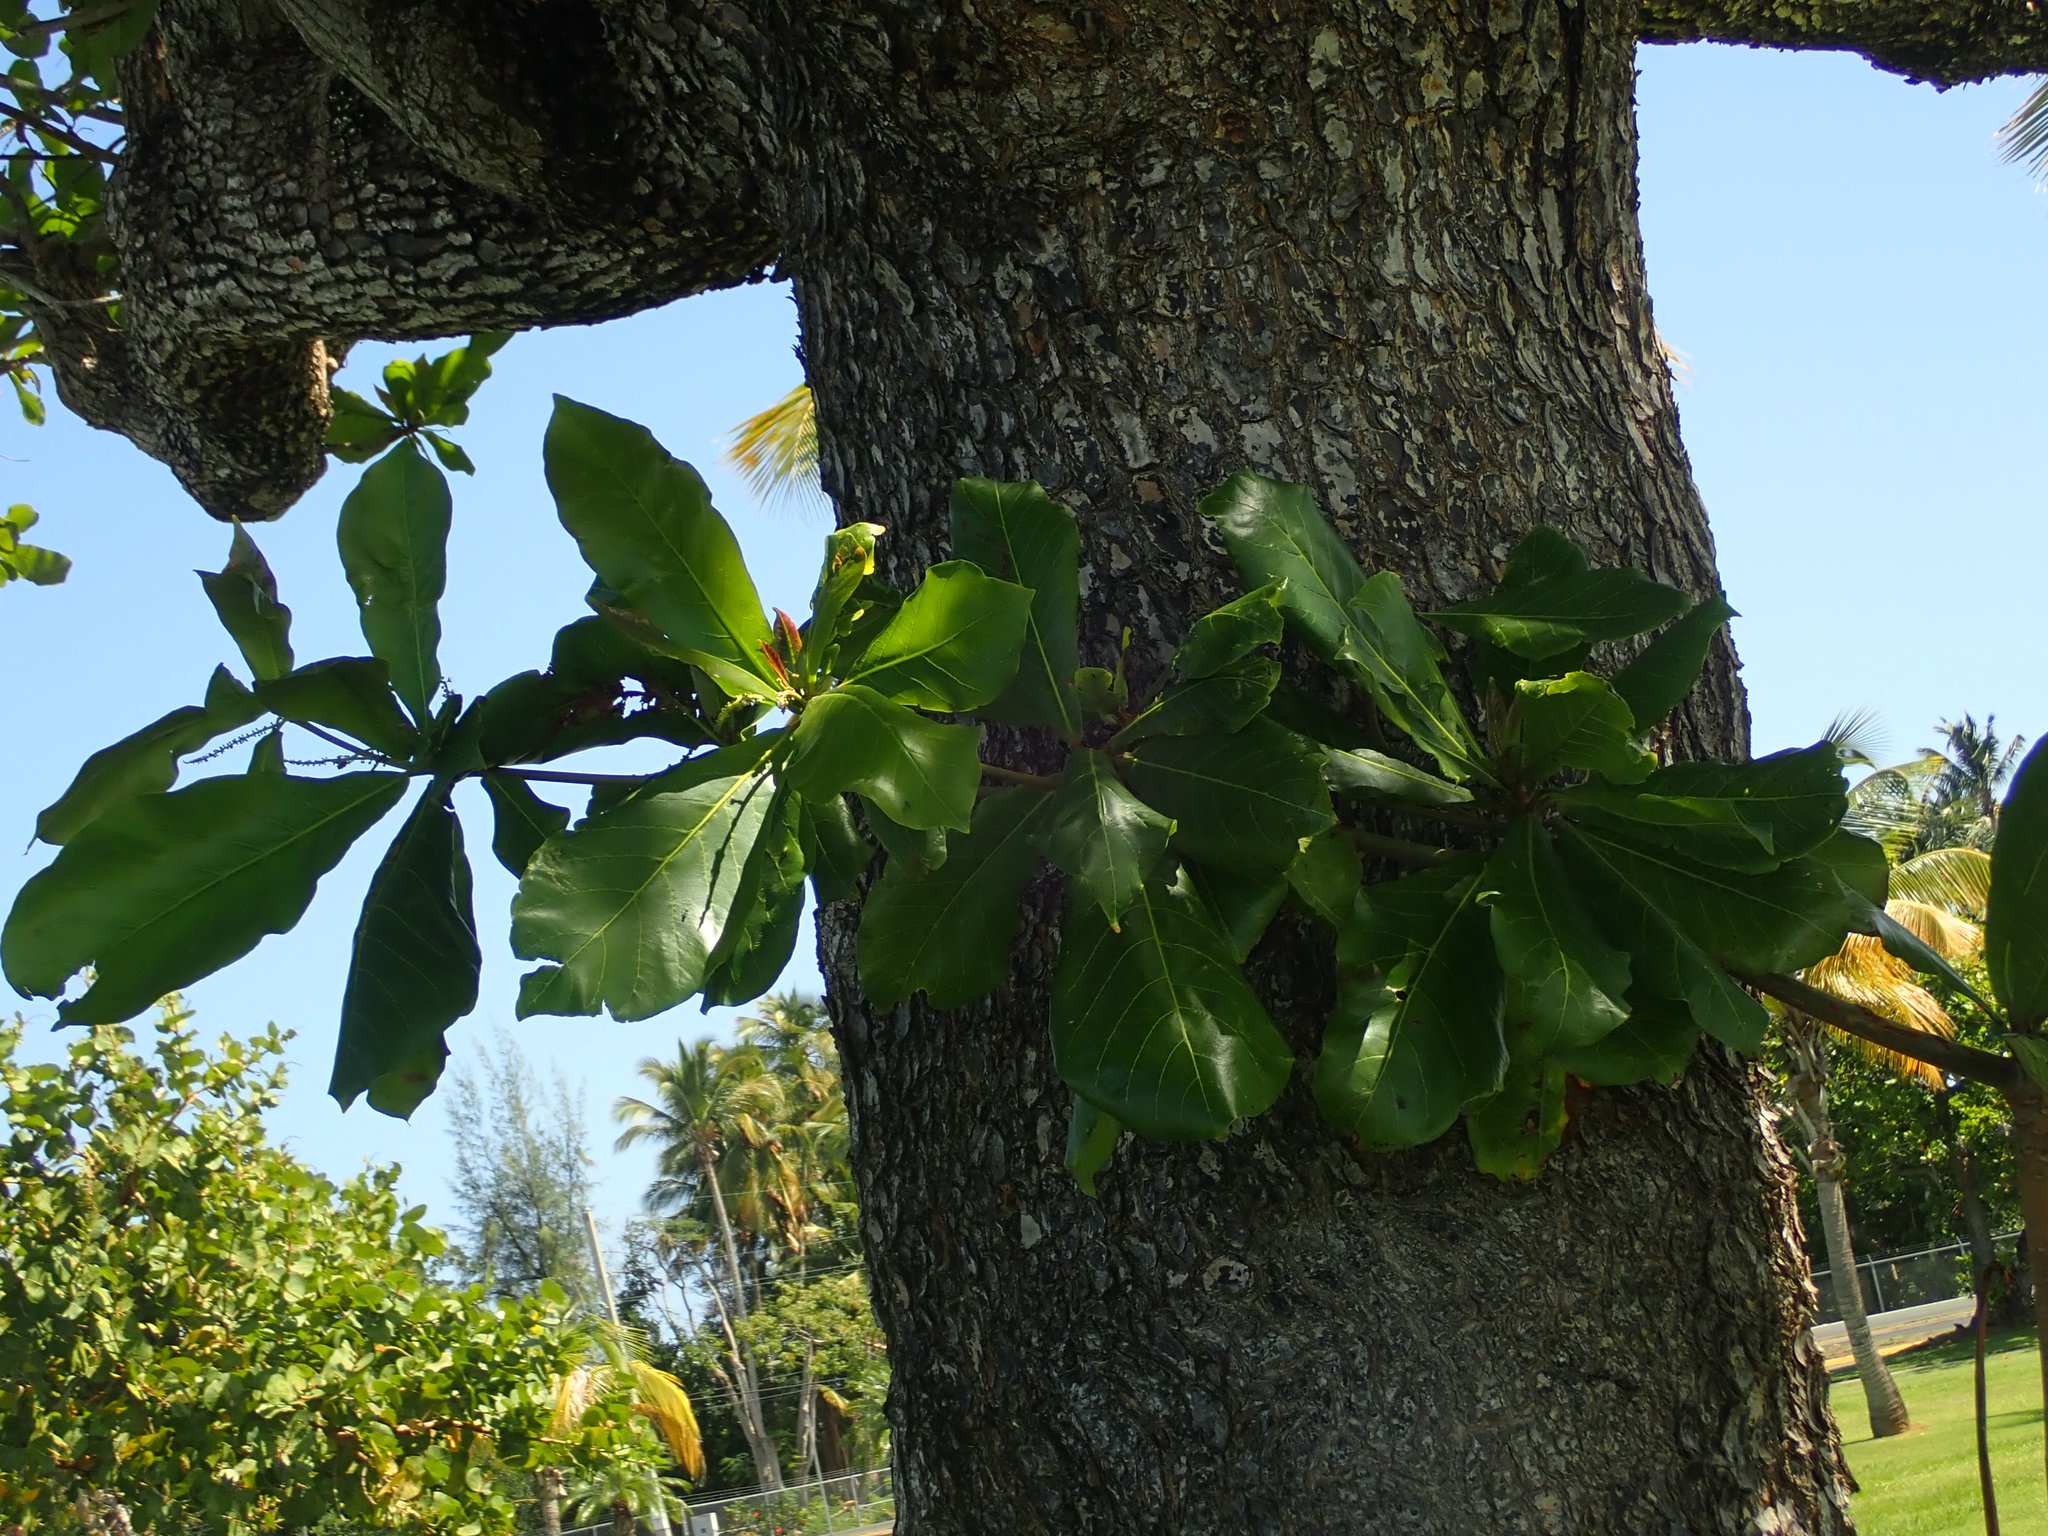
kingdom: Plantae
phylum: Tracheophyta
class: Magnoliopsida
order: Myrtales
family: Combretaceae
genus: Terminalia
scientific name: Terminalia catappa
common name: Tropical almond
